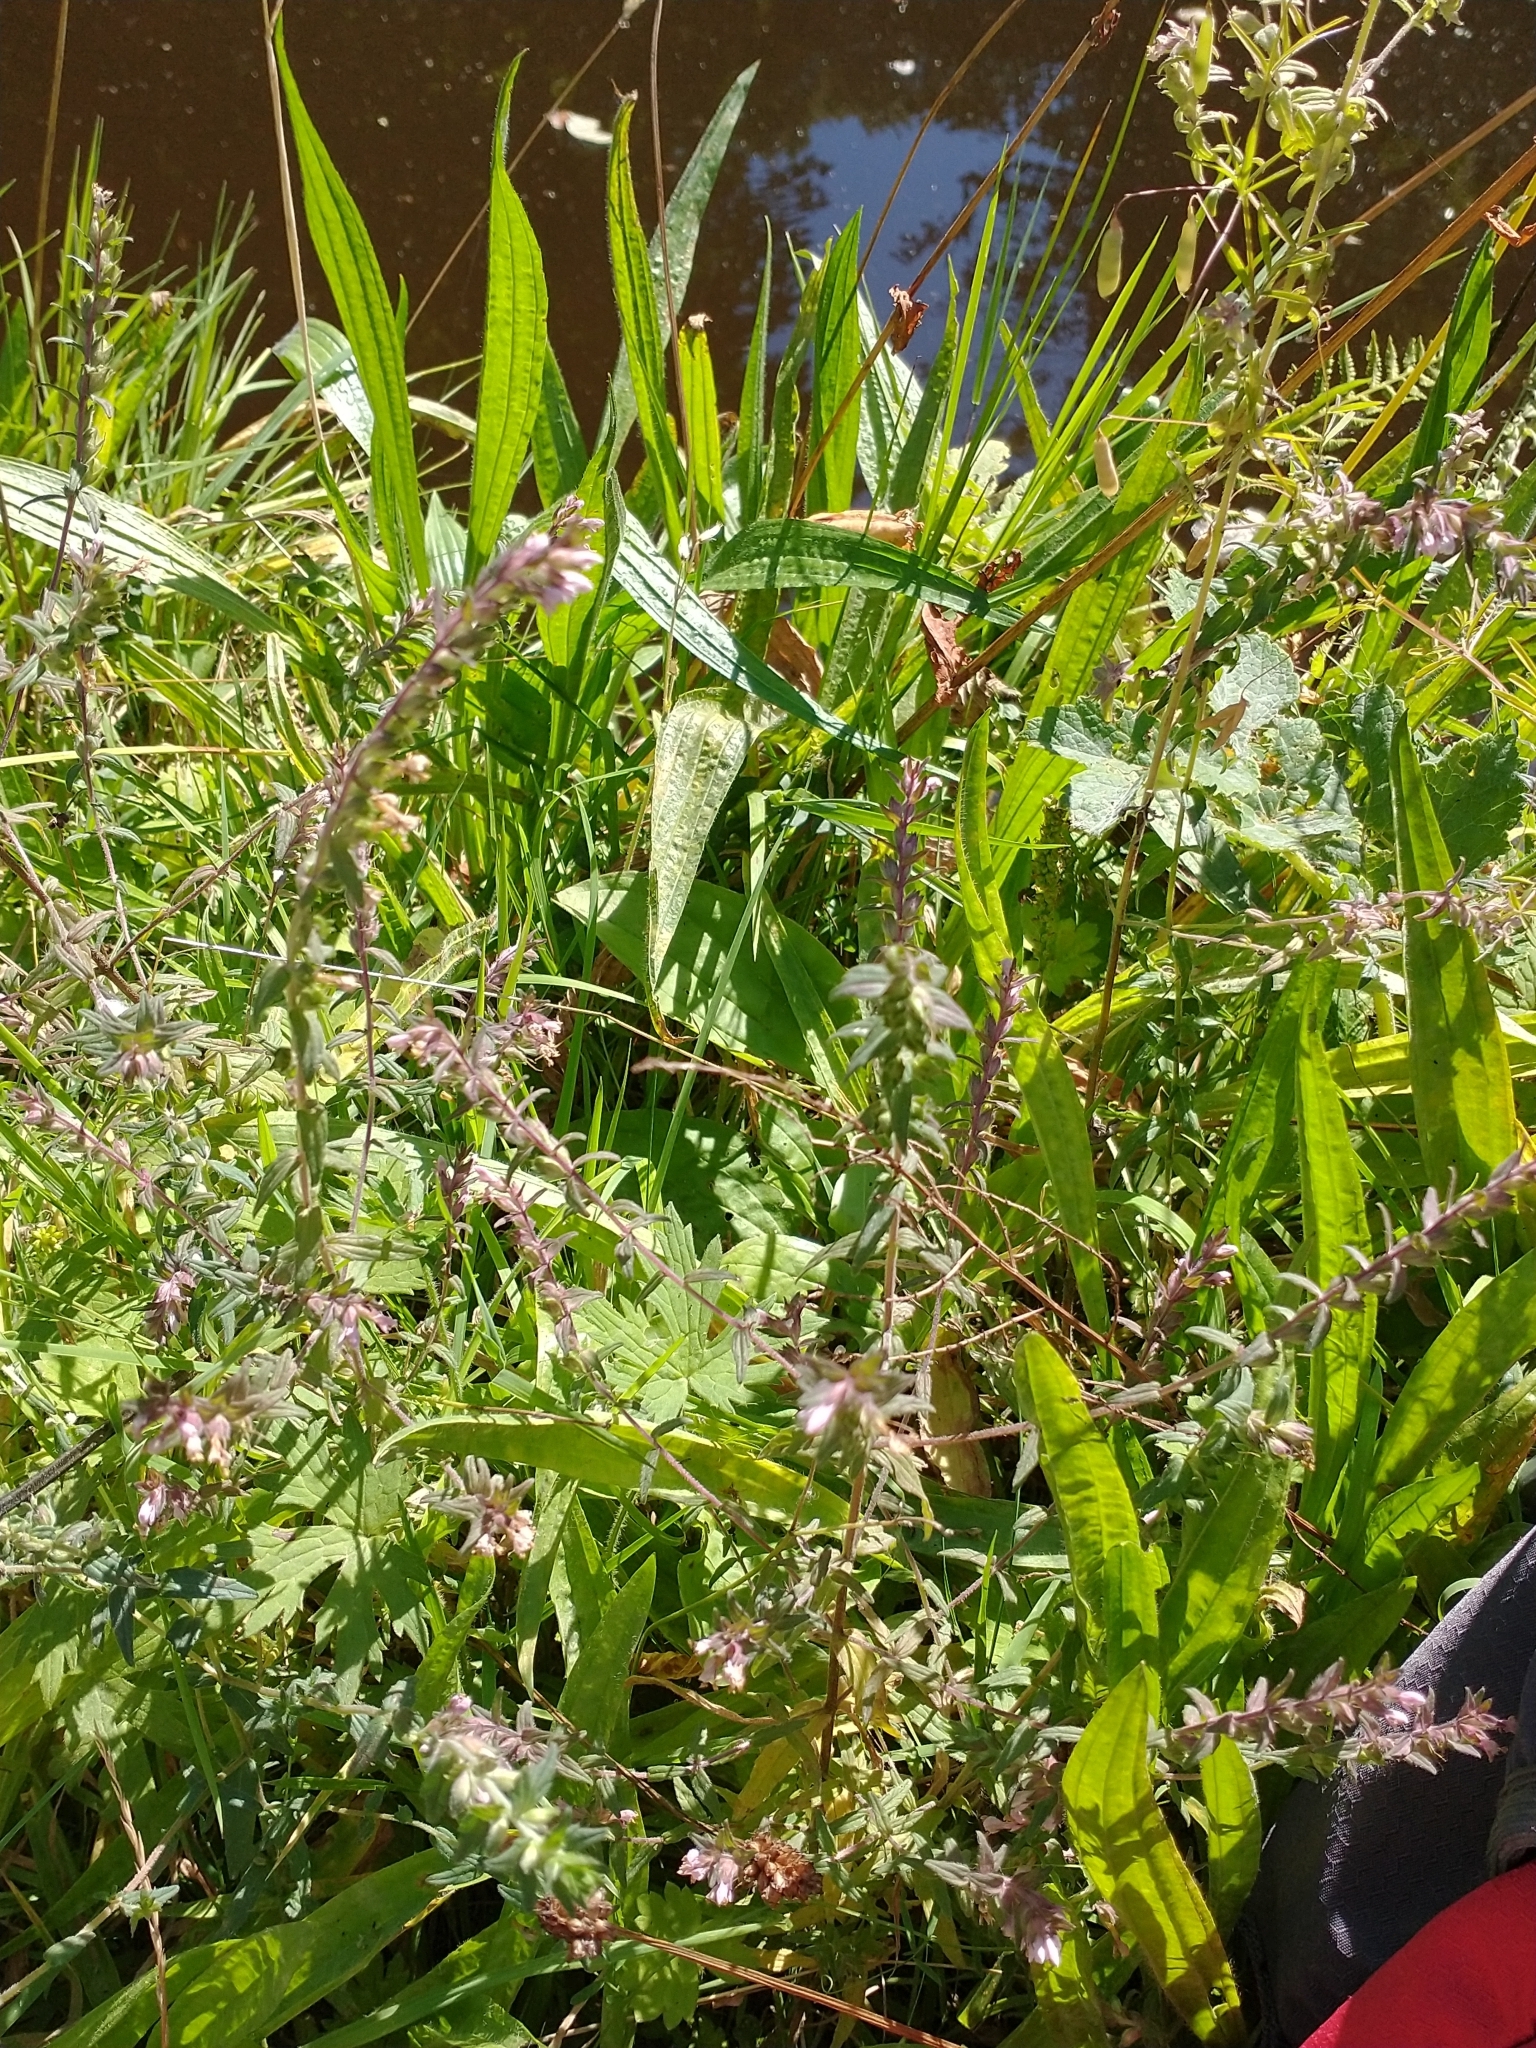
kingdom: Plantae
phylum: Tracheophyta
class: Magnoliopsida
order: Lamiales
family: Orobanchaceae
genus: Odontites
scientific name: Odontites vulgaris
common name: Broomrape
